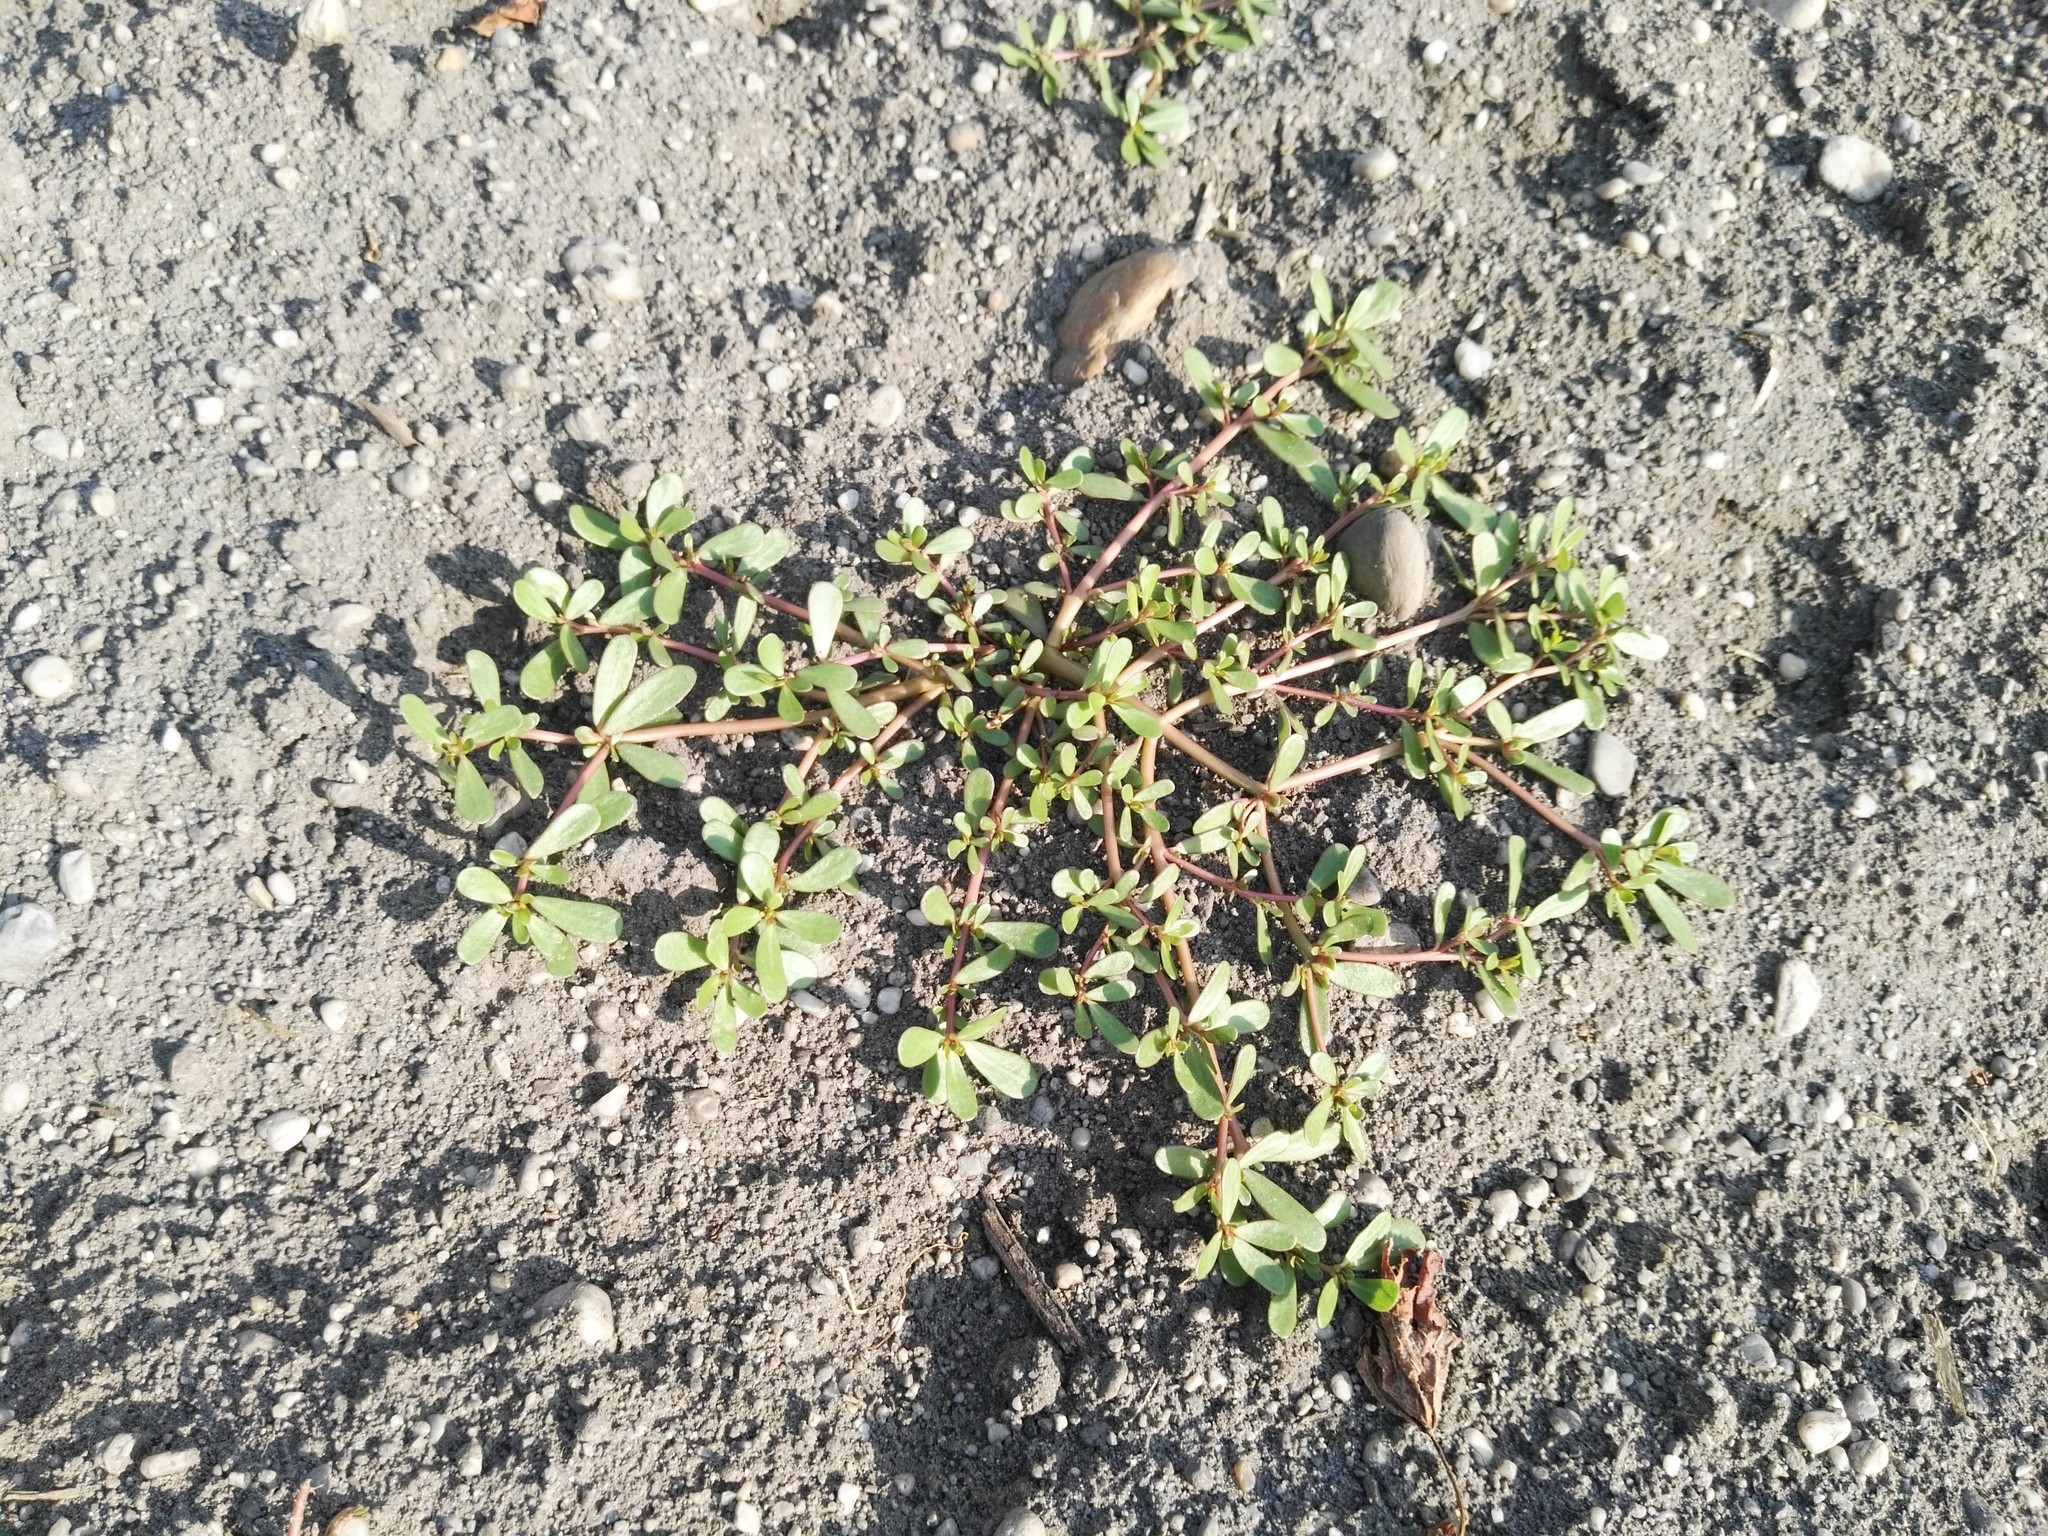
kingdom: Plantae
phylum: Tracheophyta
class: Magnoliopsida
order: Caryophyllales
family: Portulacaceae
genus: Portulaca
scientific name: Portulaca oleracea
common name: Common purslane
